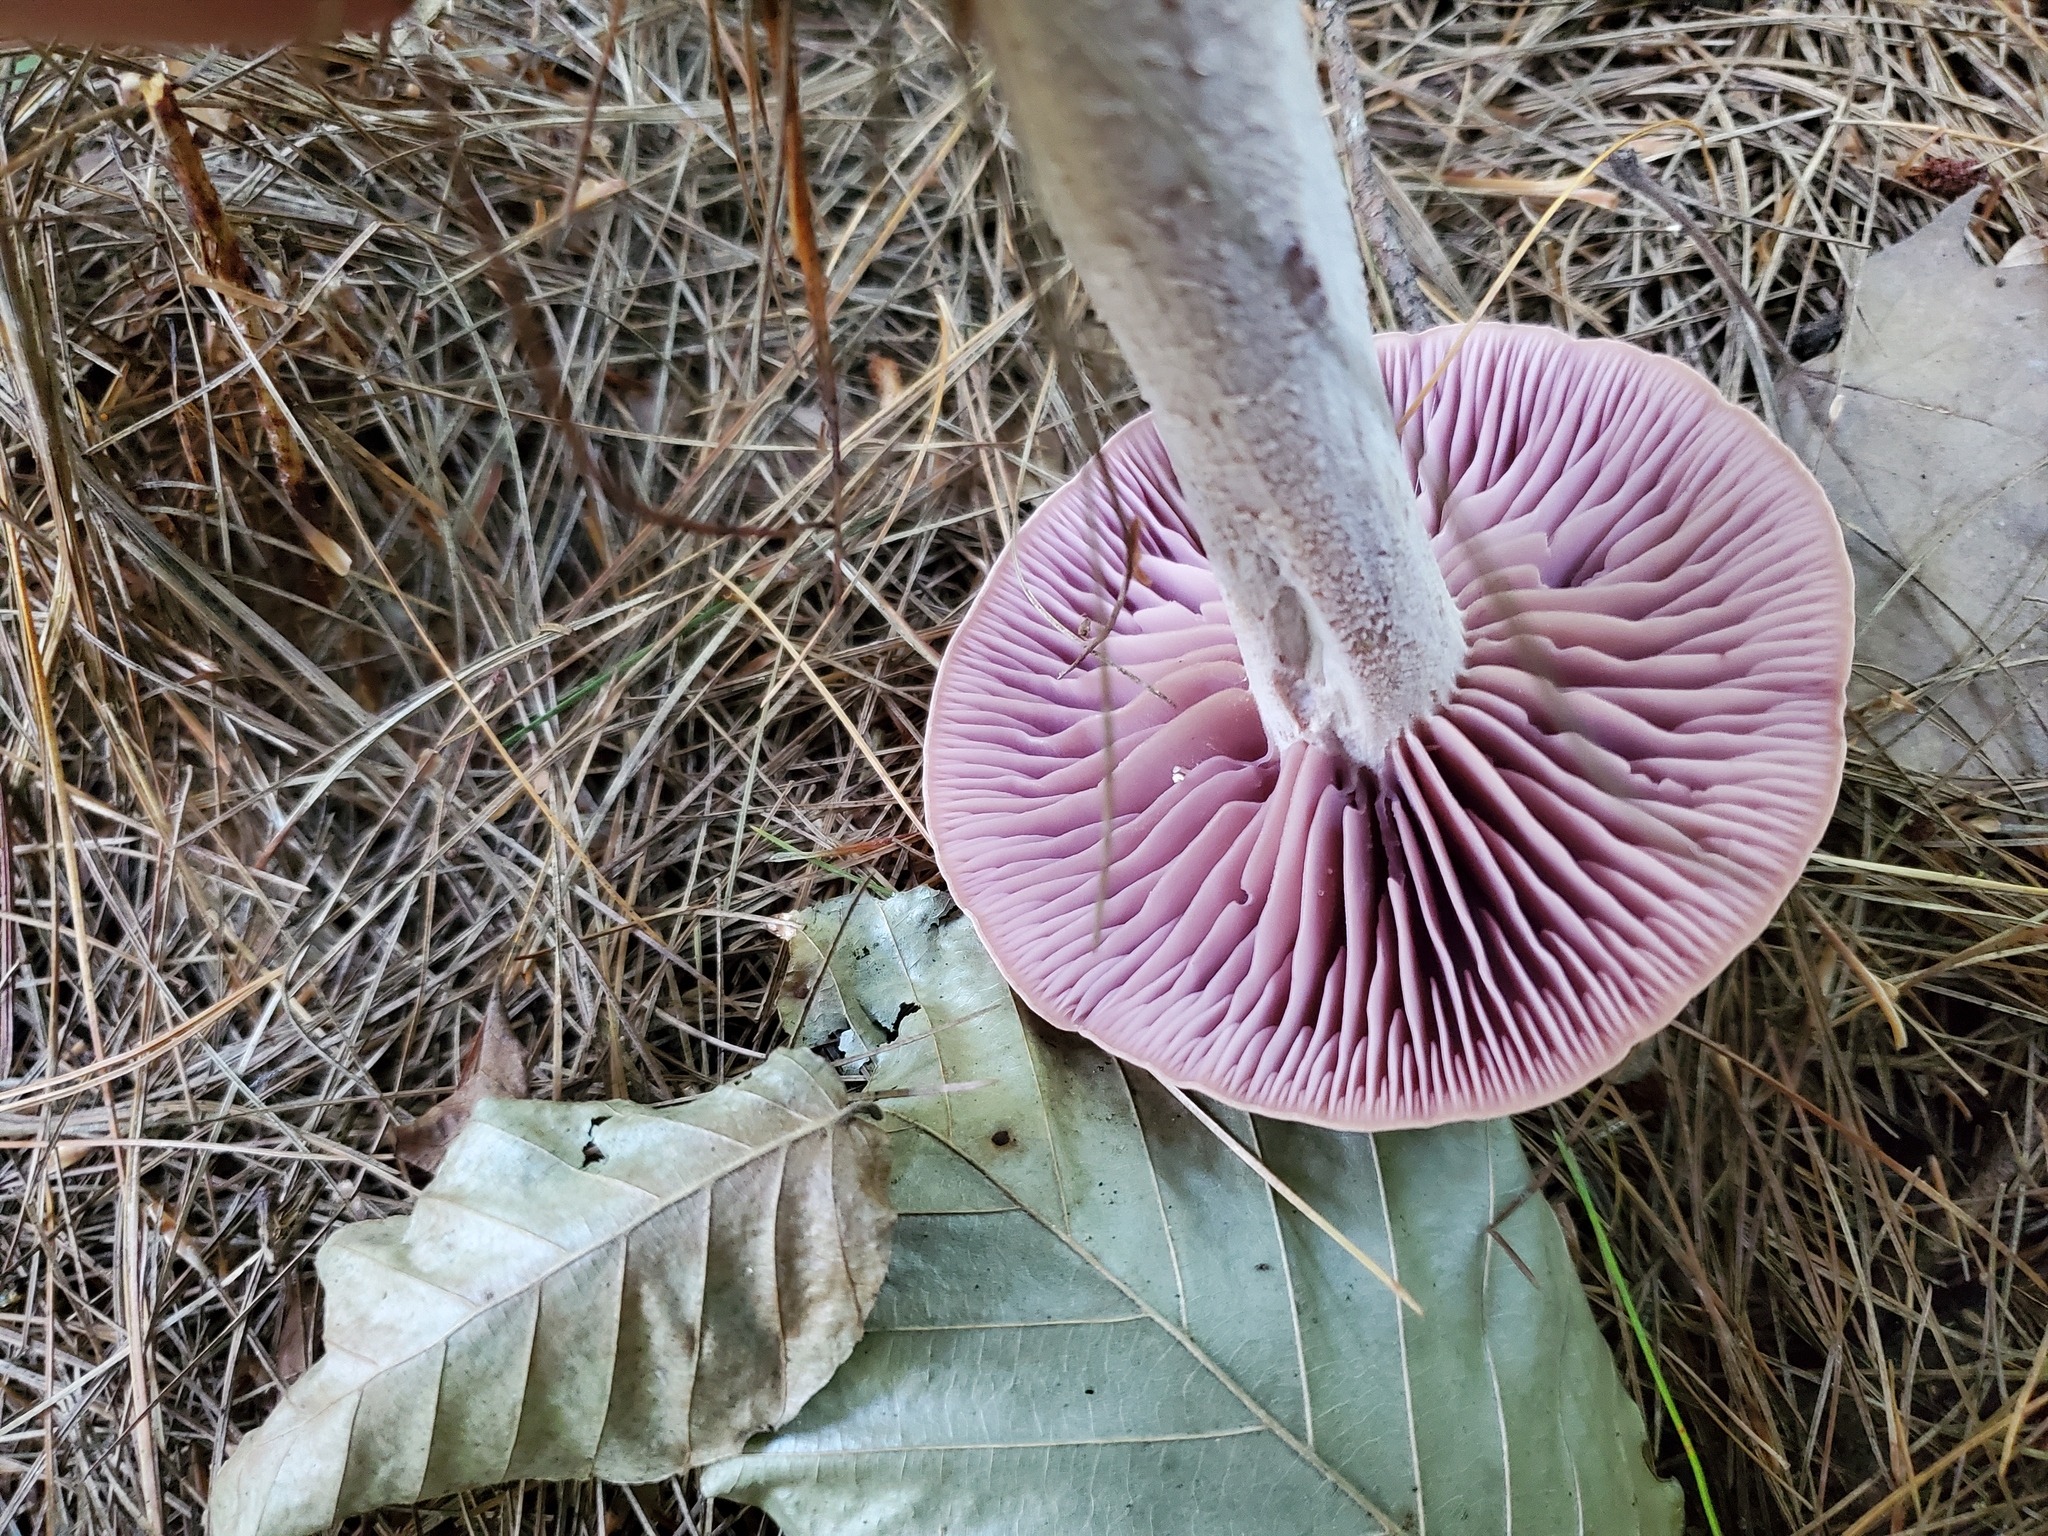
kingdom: Fungi
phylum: Basidiomycota
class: Agaricomycetes
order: Agaricales
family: Hydnangiaceae
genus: Laccaria
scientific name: Laccaria ochropurpurea
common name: Purple laccaria
